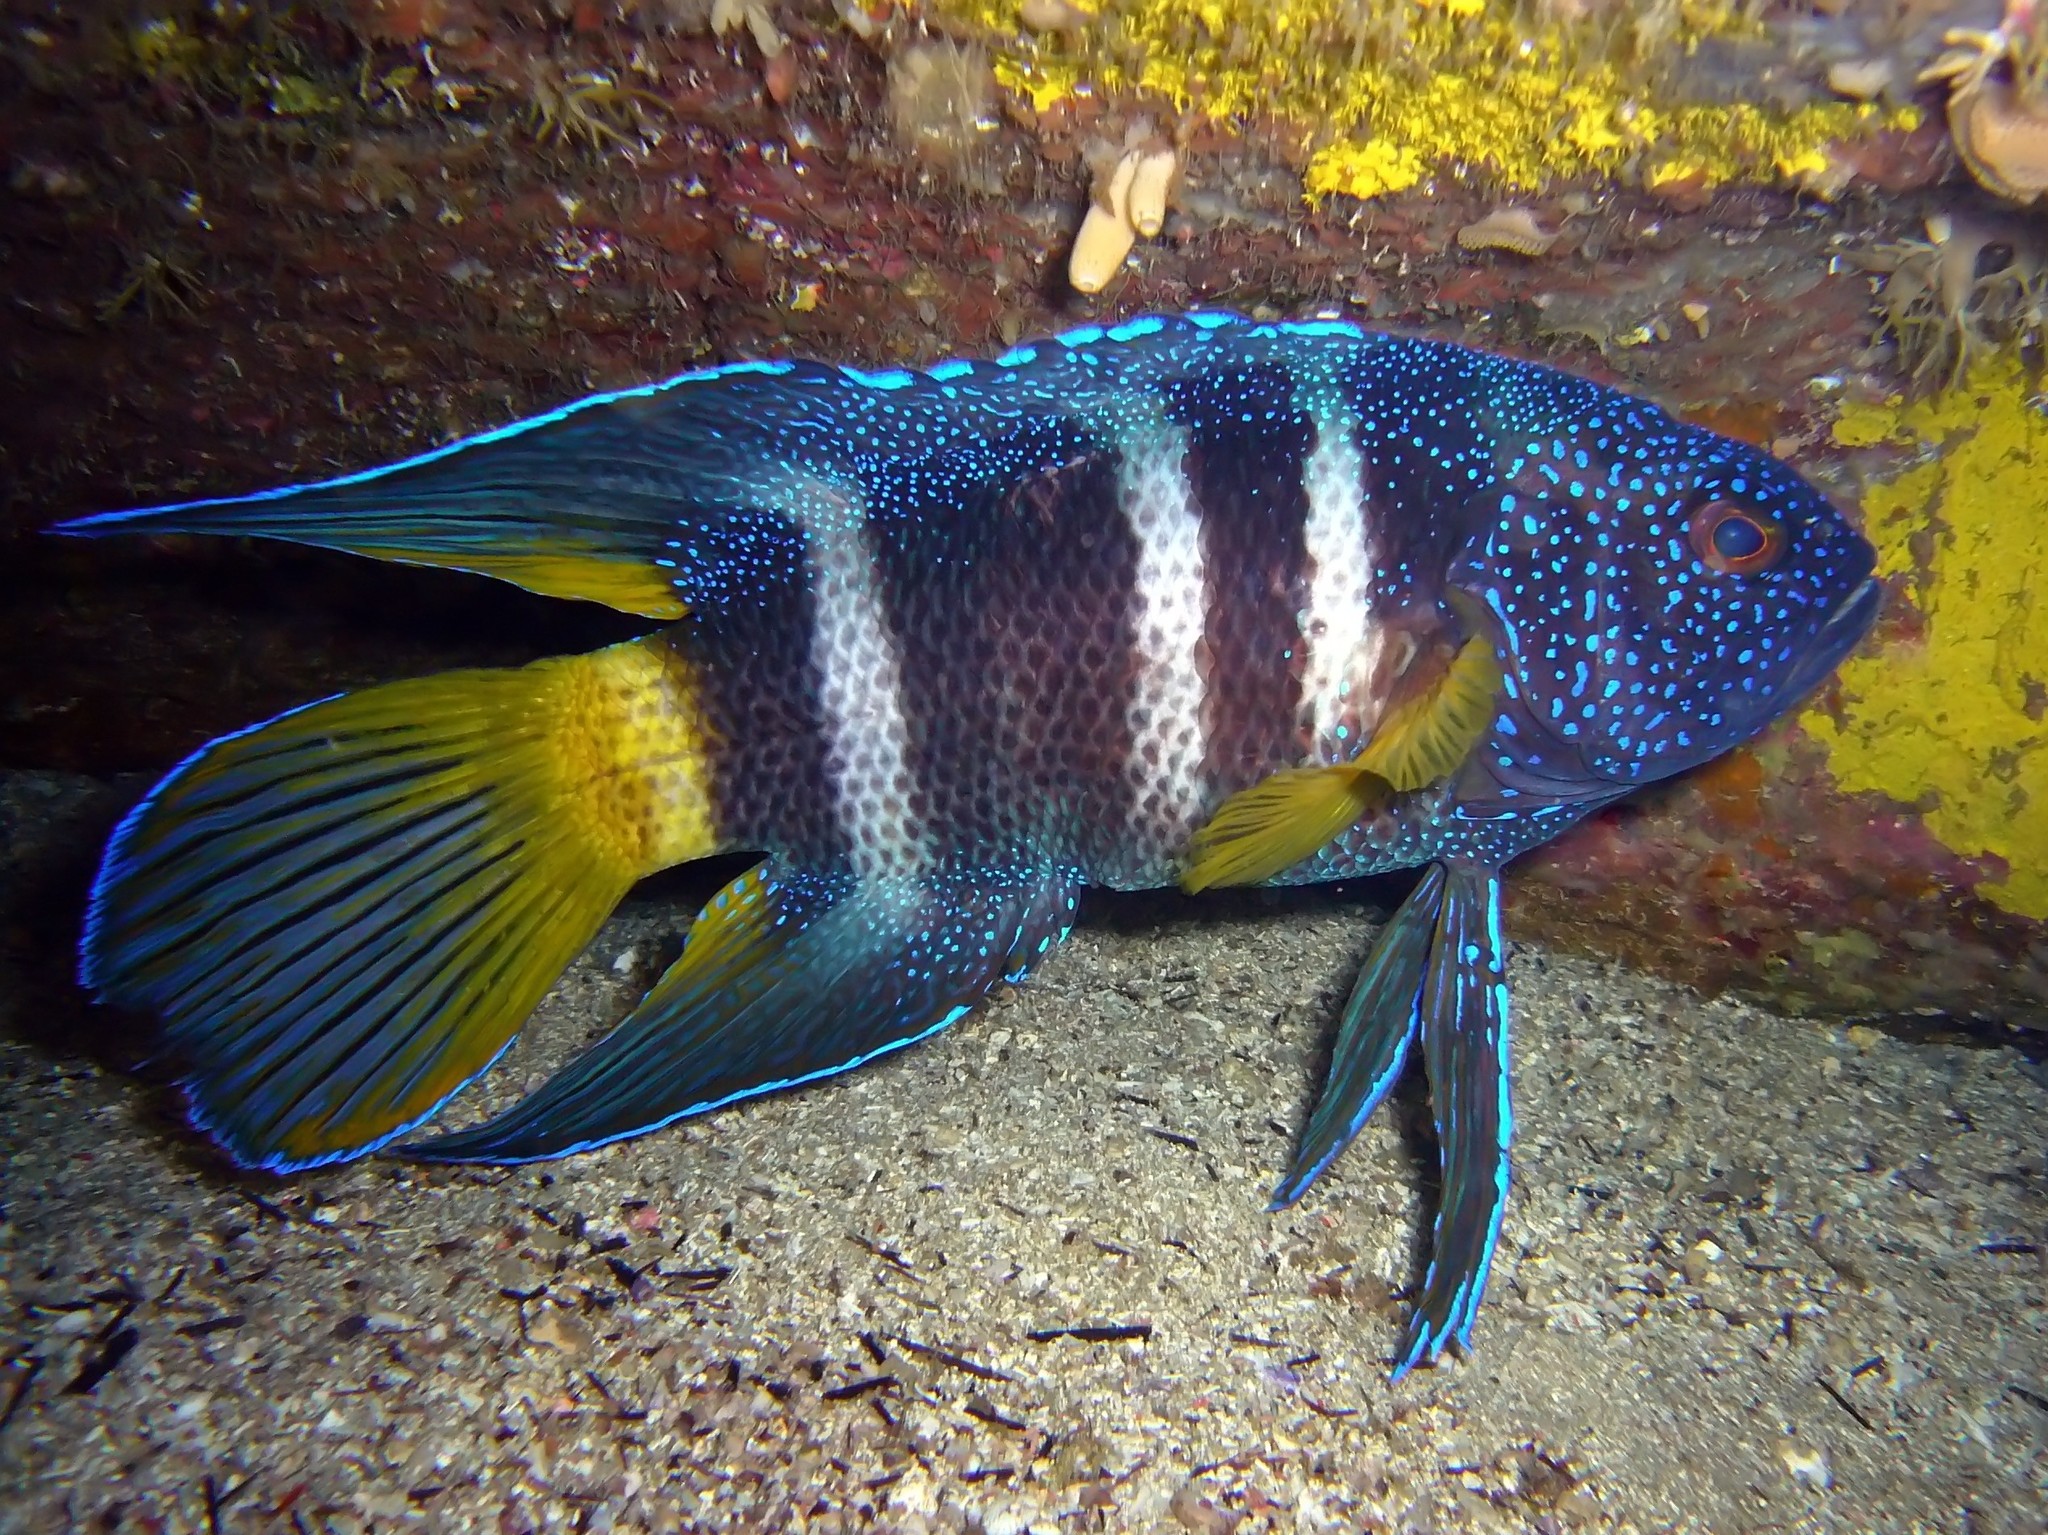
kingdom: Animalia
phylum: Chordata
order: Perciformes
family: Plesiopidae
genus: Paraplesiops
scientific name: Paraplesiops bleekeri
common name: Bleeker's devilfish
